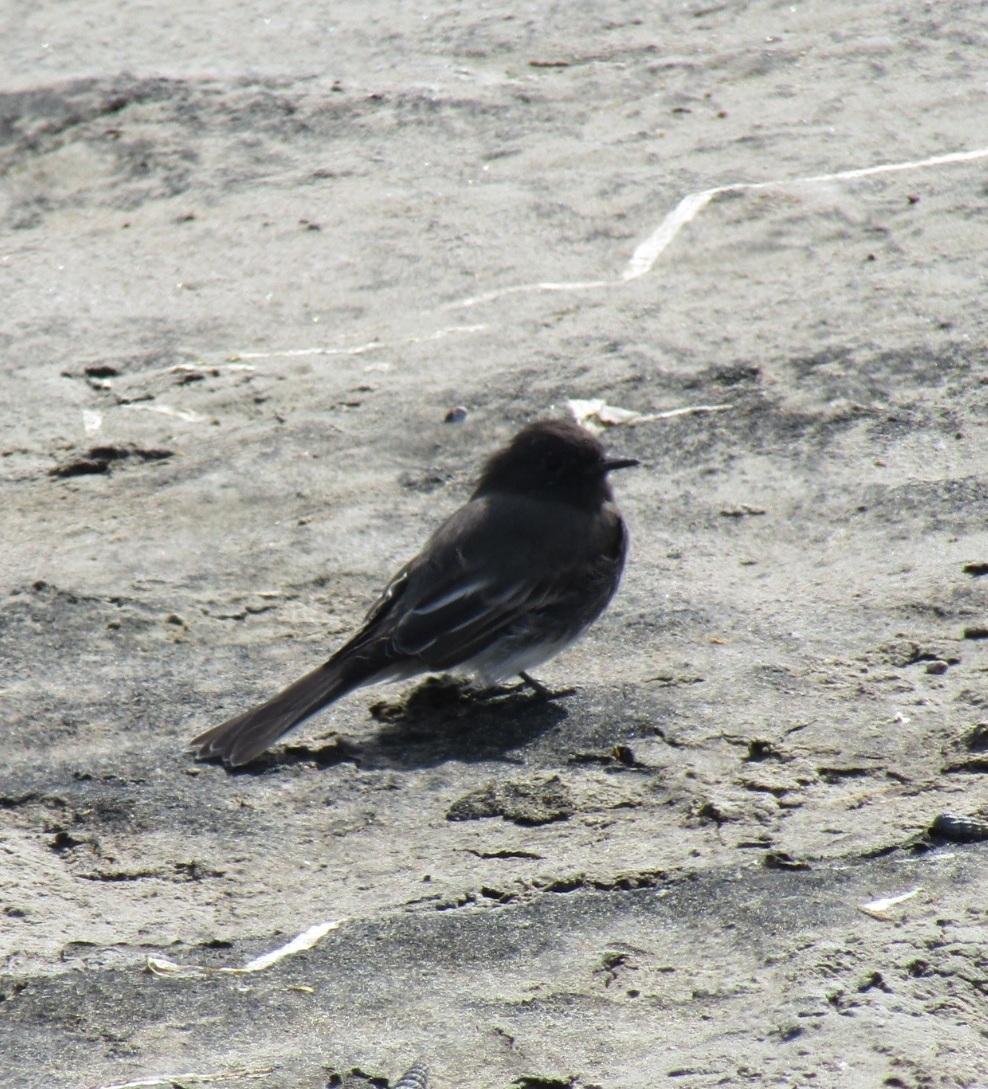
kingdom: Animalia
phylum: Chordata
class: Aves
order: Passeriformes
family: Tyrannidae
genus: Sayornis
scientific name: Sayornis nigricans
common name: Black phoebe
